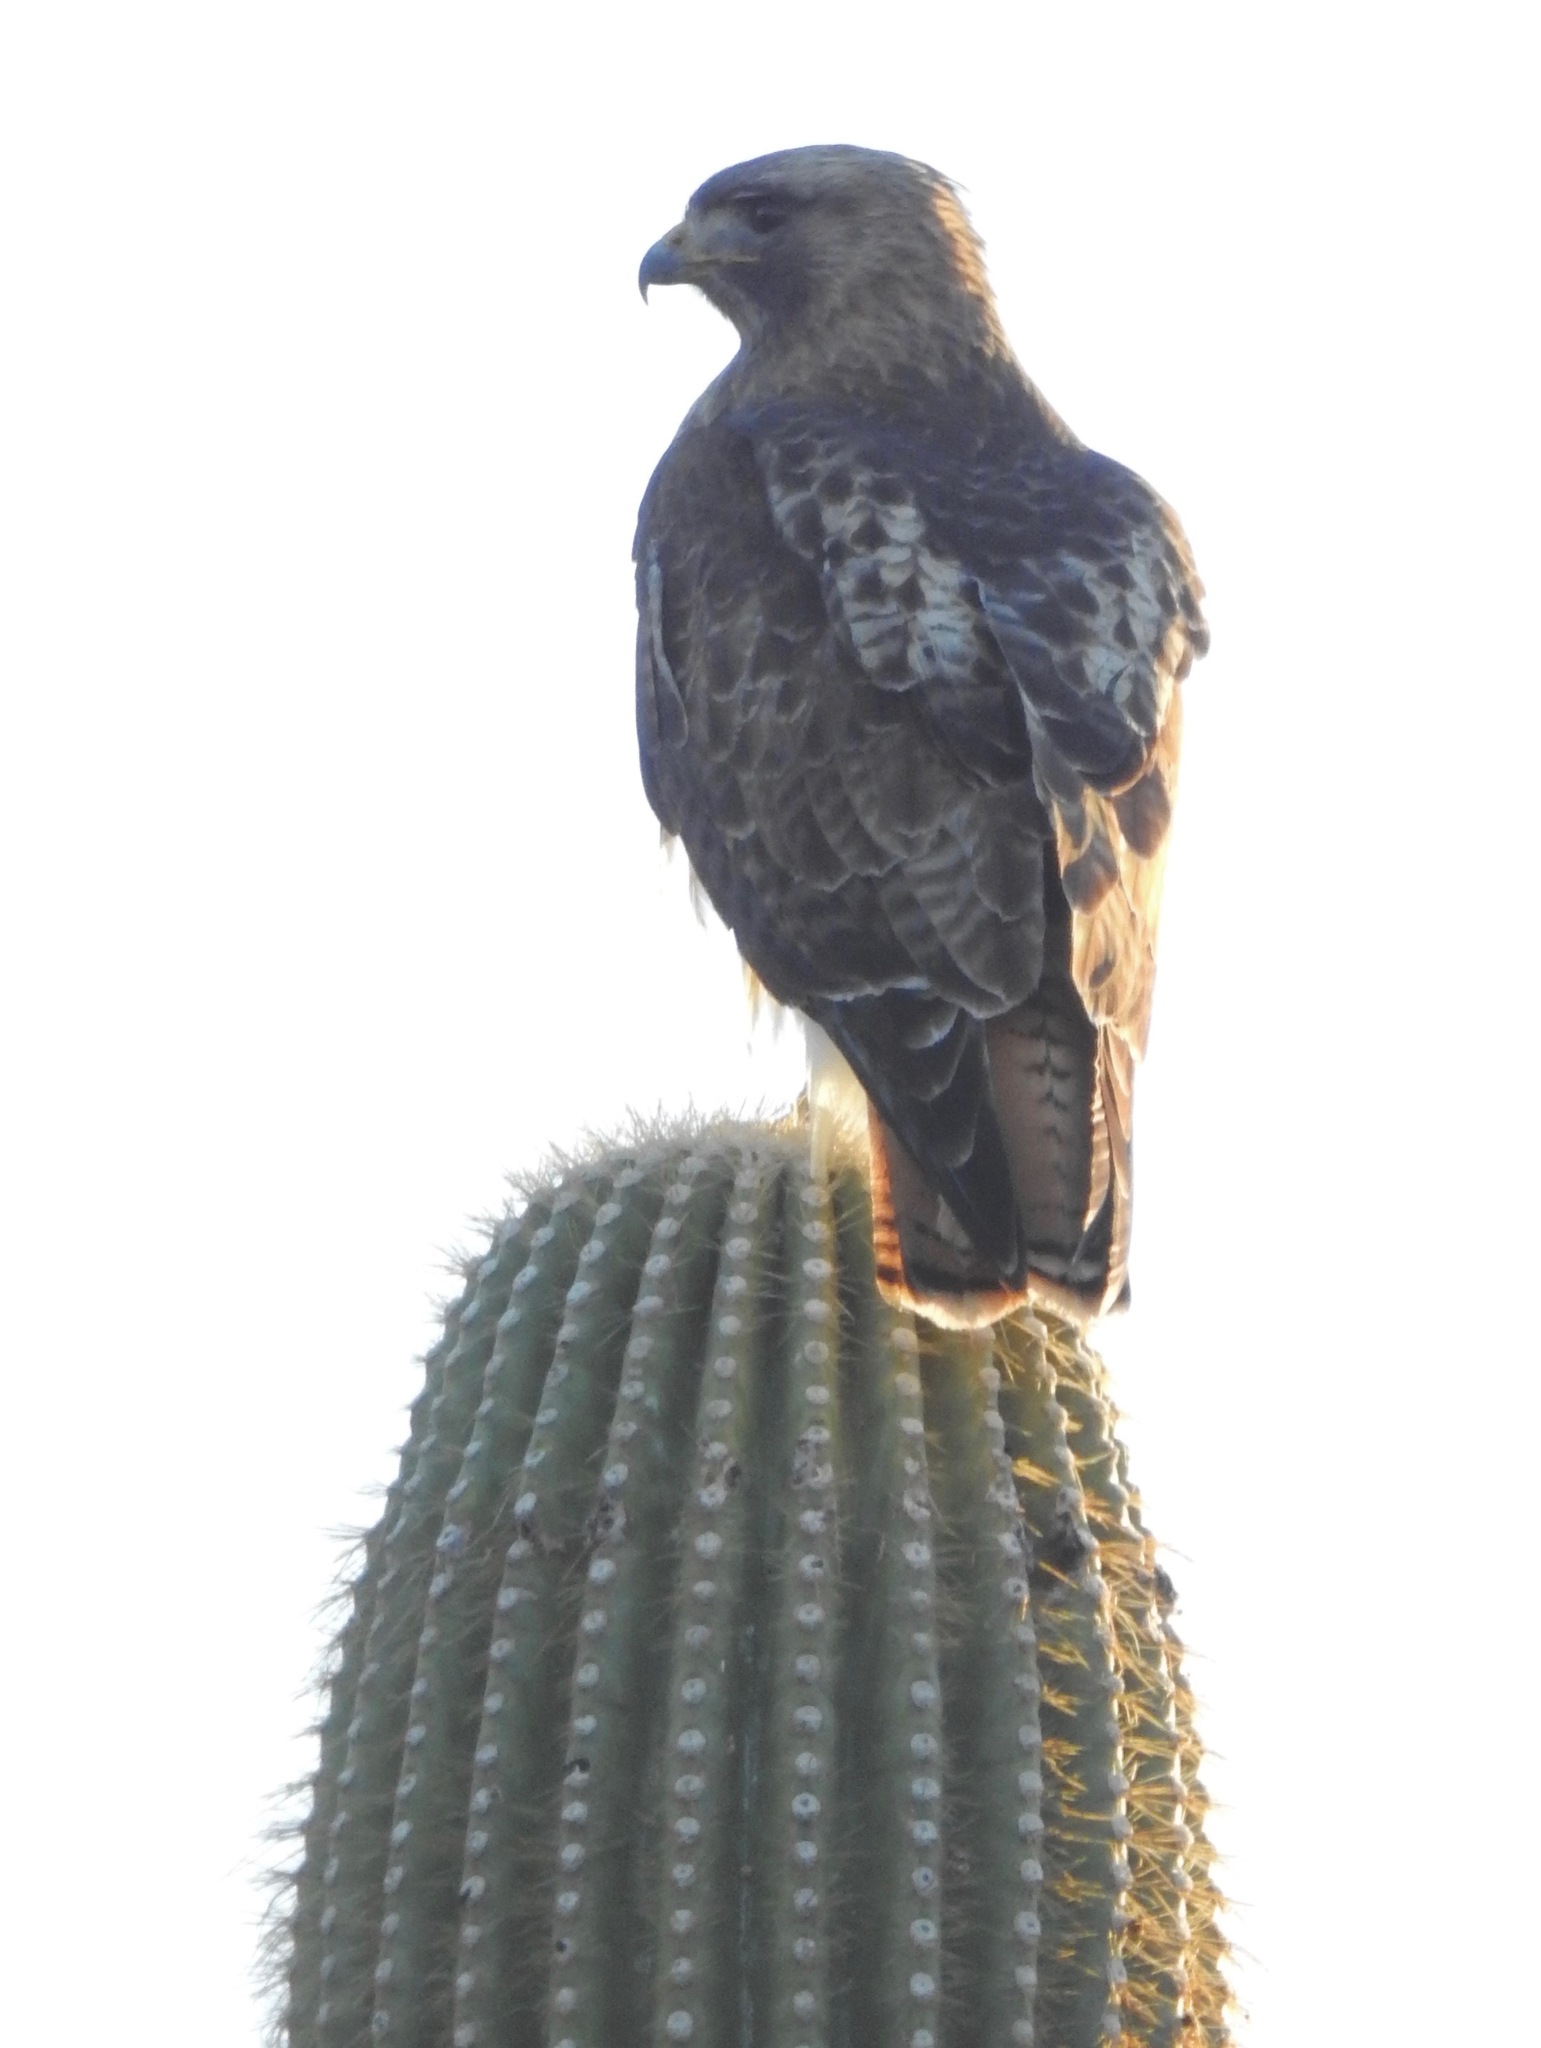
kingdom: Animalia
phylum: Chordata
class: Aves
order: Accipitriformes
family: Accipitridae
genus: Buteo
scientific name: Buteo jamaicensis
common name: Red-tailed hawk
